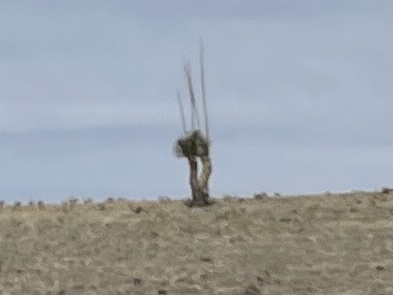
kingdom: Plantae
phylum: Tracheophyta
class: Liliopsida
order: Asparagales
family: Asparagaceae
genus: Yucca
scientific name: Yucca elata
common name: Palmella
